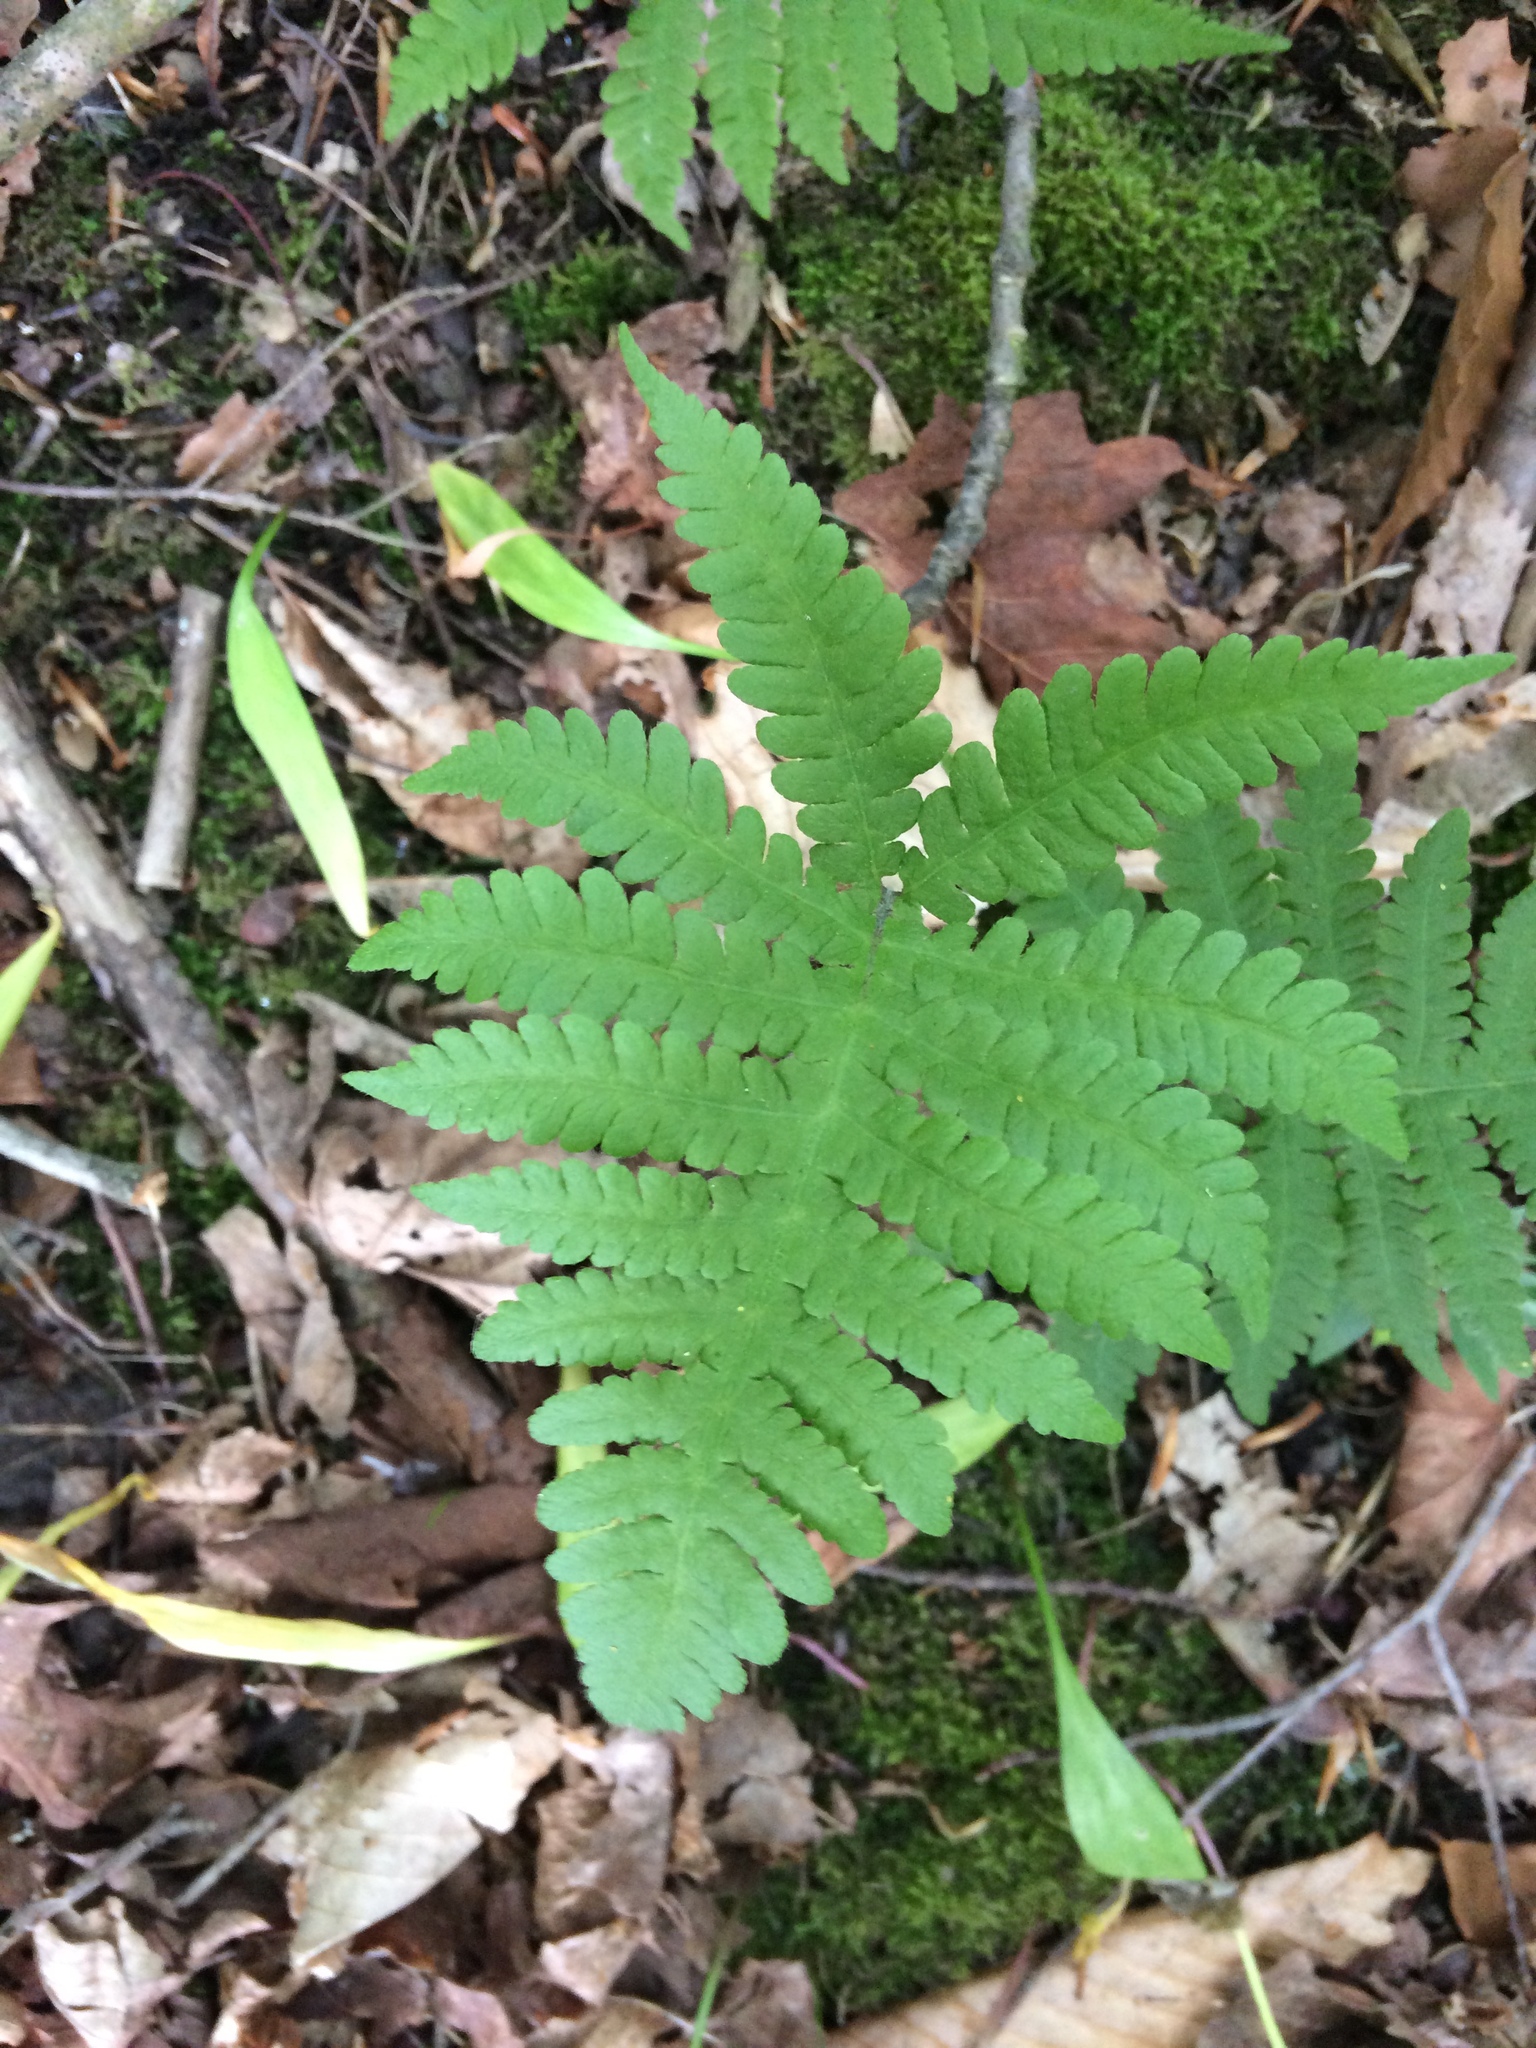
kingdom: Plantae
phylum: Tracheophyta
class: Polypodiopsida
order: Polypodiales
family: Thelypteridaceae
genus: Phegopteris
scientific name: Phegopteris connectilis
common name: Beech fern
